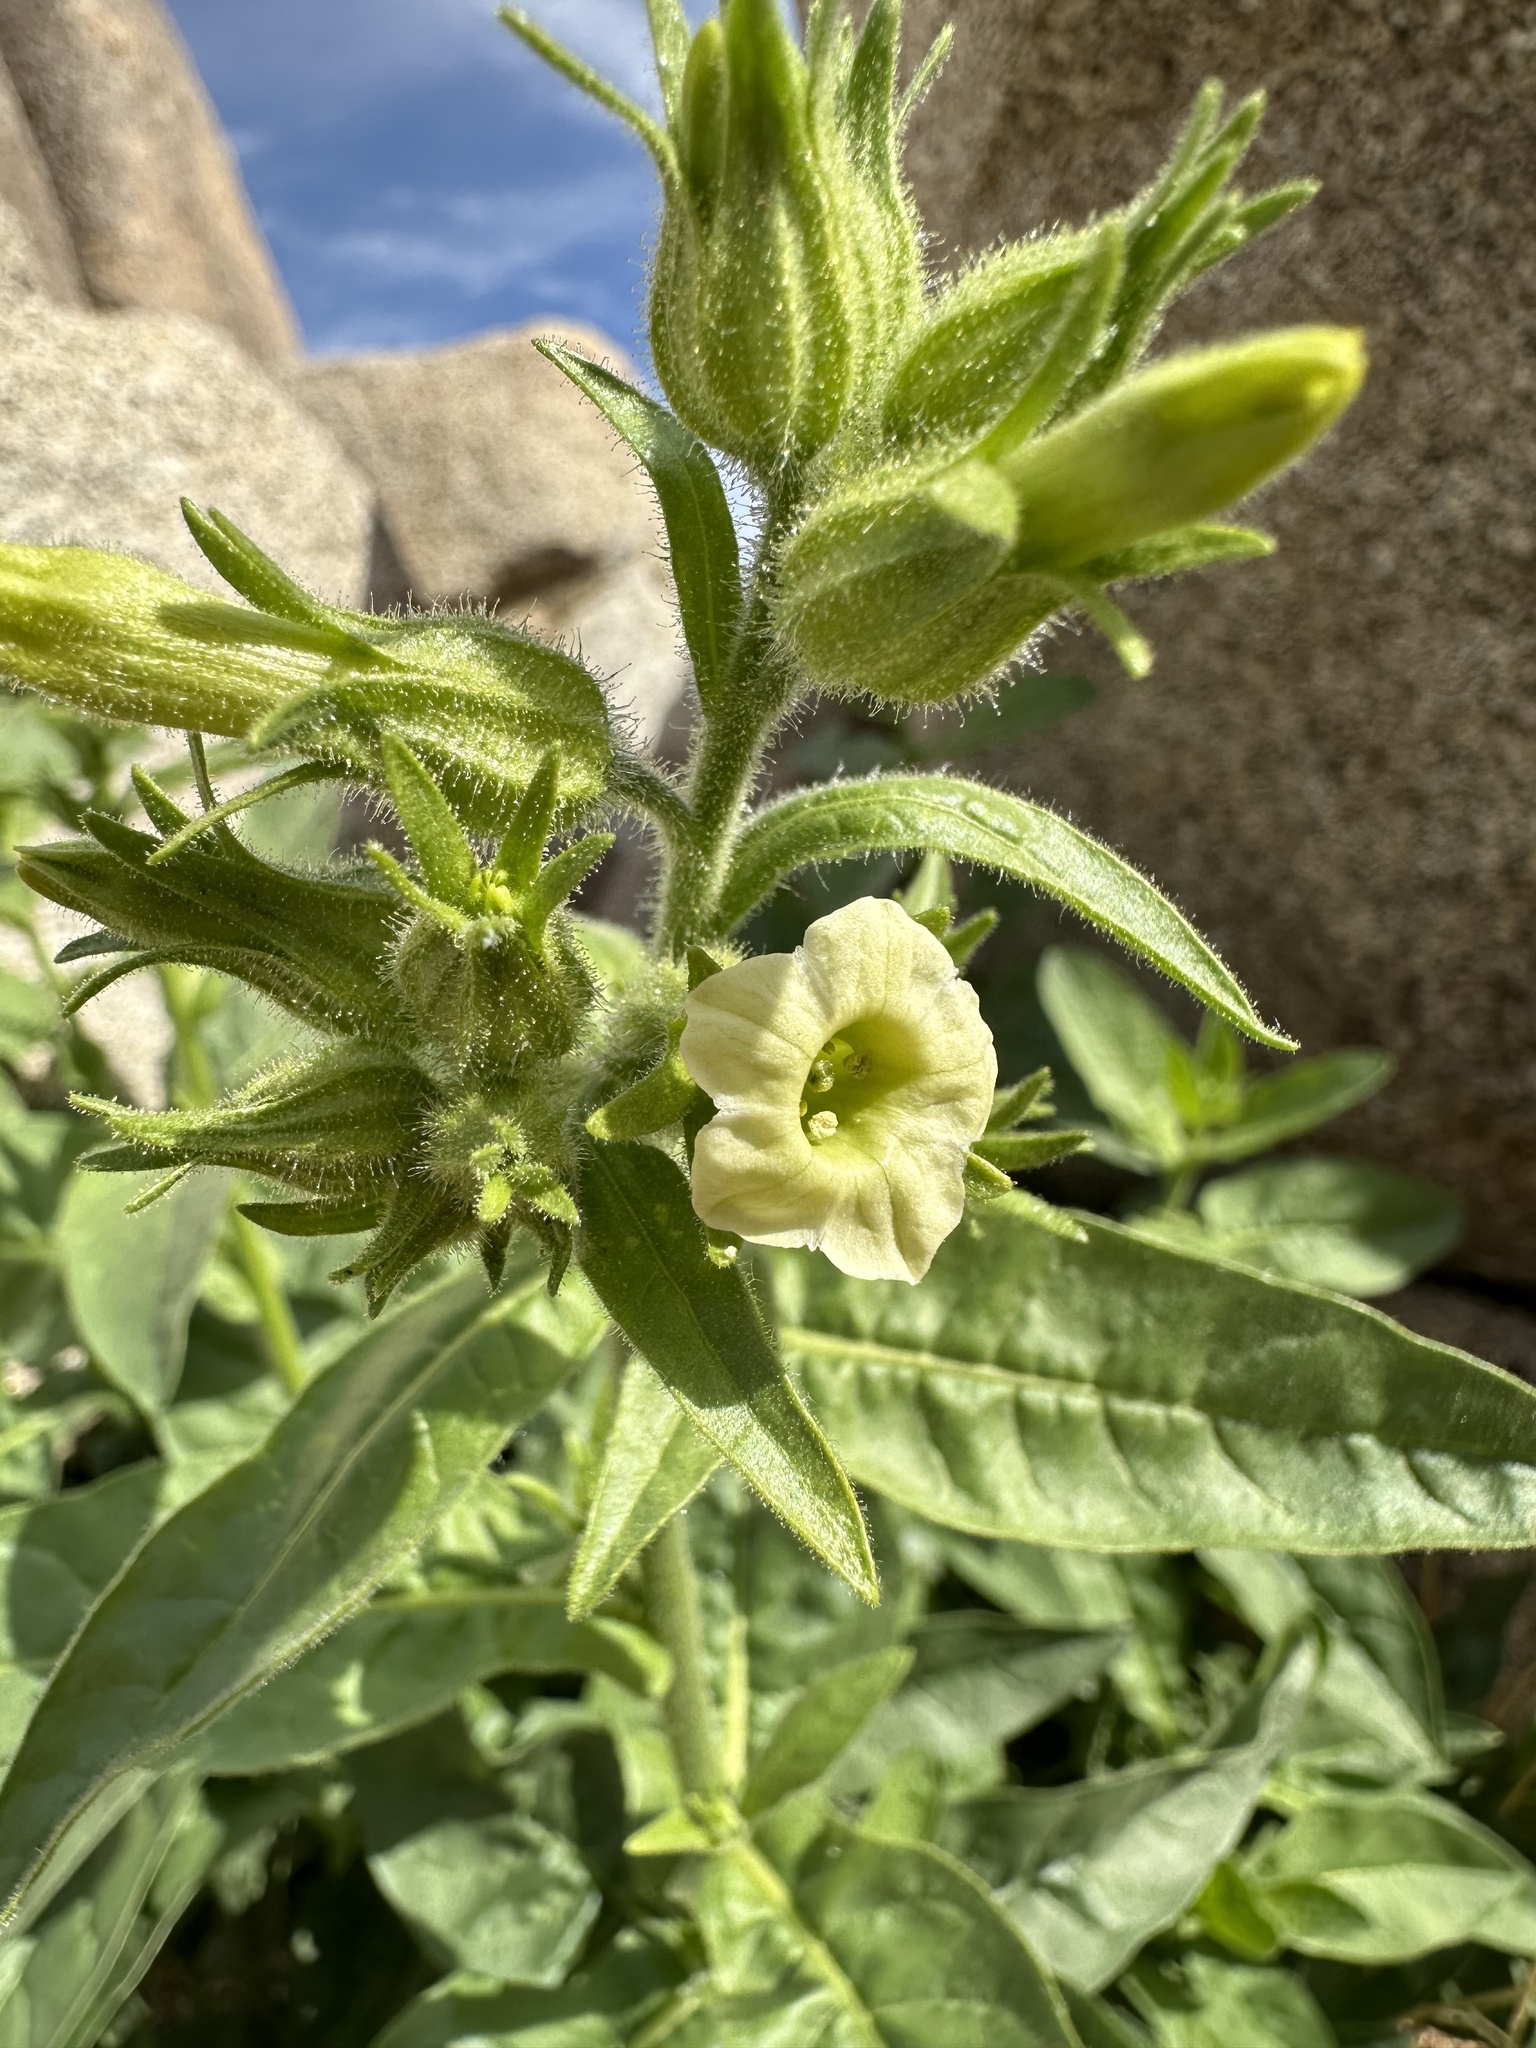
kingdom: Plantae
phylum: Tracheophyta
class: Magnoliopsida
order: Solanales
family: Solanaceae
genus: Nicotiana
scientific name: Nicotiana obtusifolia
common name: Desert tobacco
